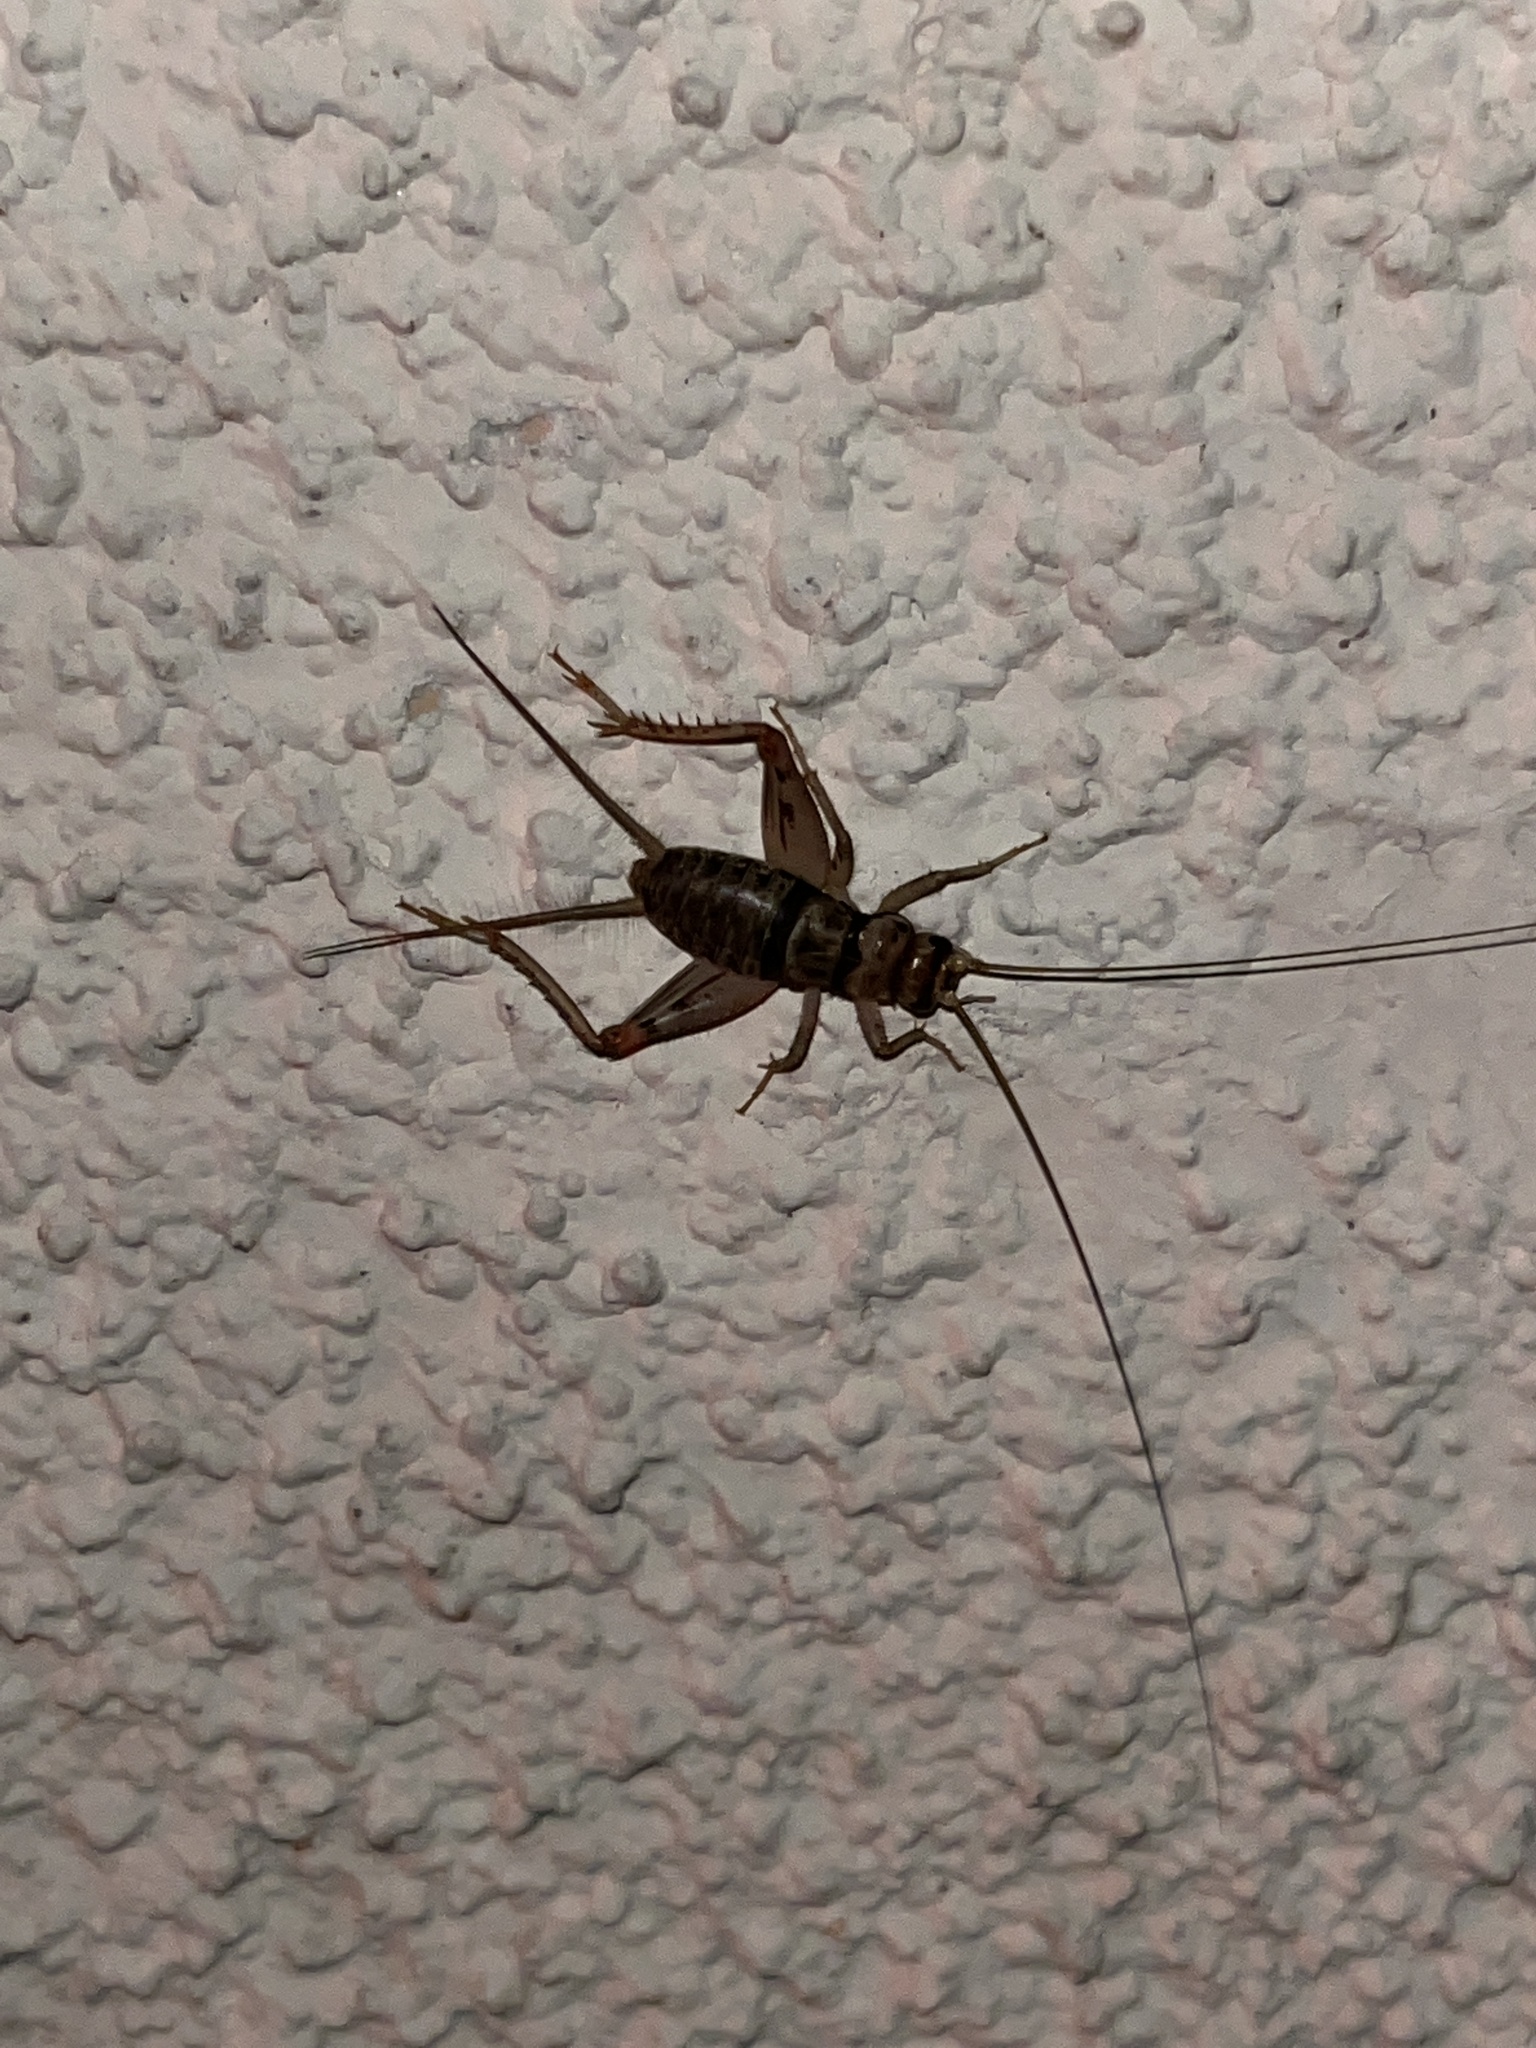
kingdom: Animalia
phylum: Arthropoda
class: Insecta
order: Orthoptera
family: Gryllidae
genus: Gryllodes
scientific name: Gryllodes sigillatus
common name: Tropical house cricket
